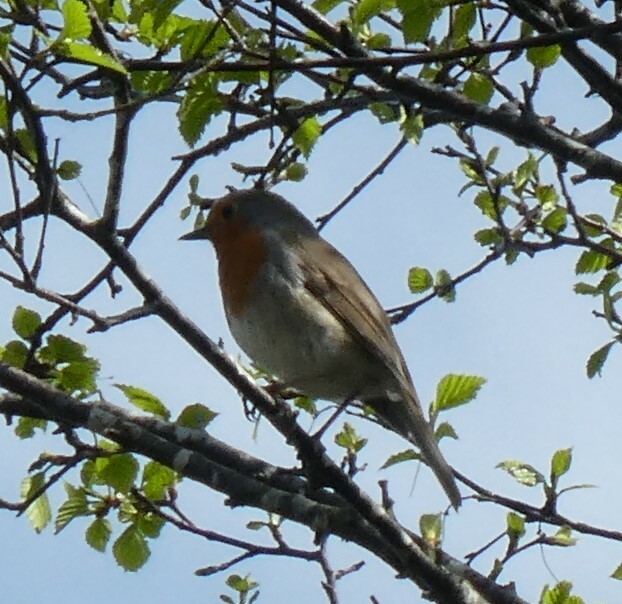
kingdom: Animalia
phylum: Chordata
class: Aves
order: Passeriformes
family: Muscicapidae
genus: Erithacus
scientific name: Erithacus rubecula
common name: European robin
